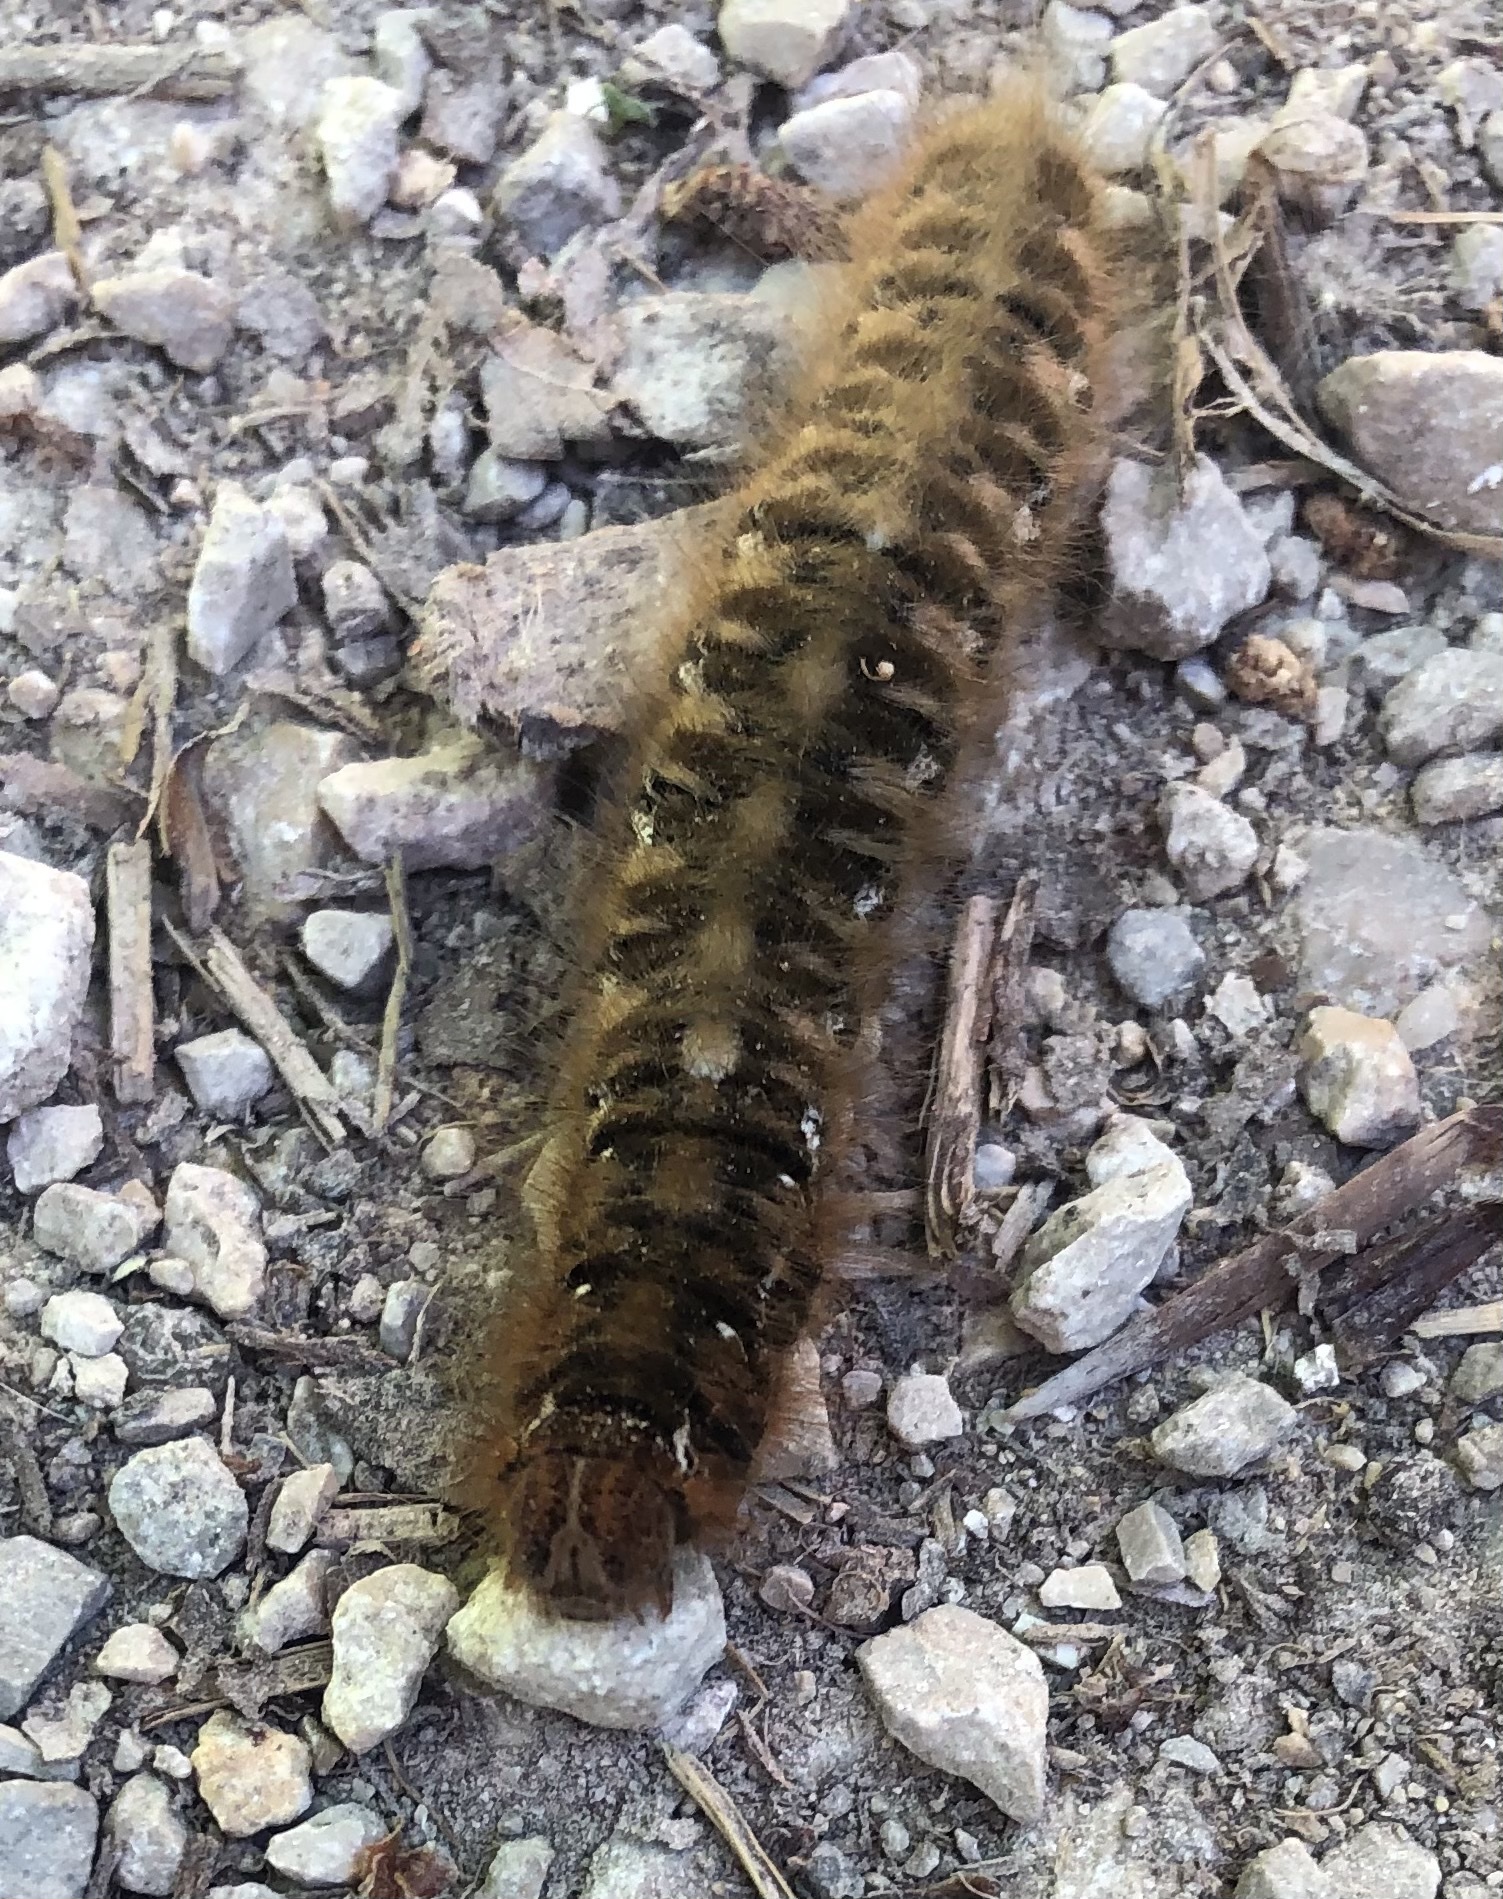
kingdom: Animalia
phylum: Arthropoda
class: Insecta
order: Lepidoptera
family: Lasiocampidae
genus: Lasiocampa
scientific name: Lasiocampa quercus
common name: Oak eggar
